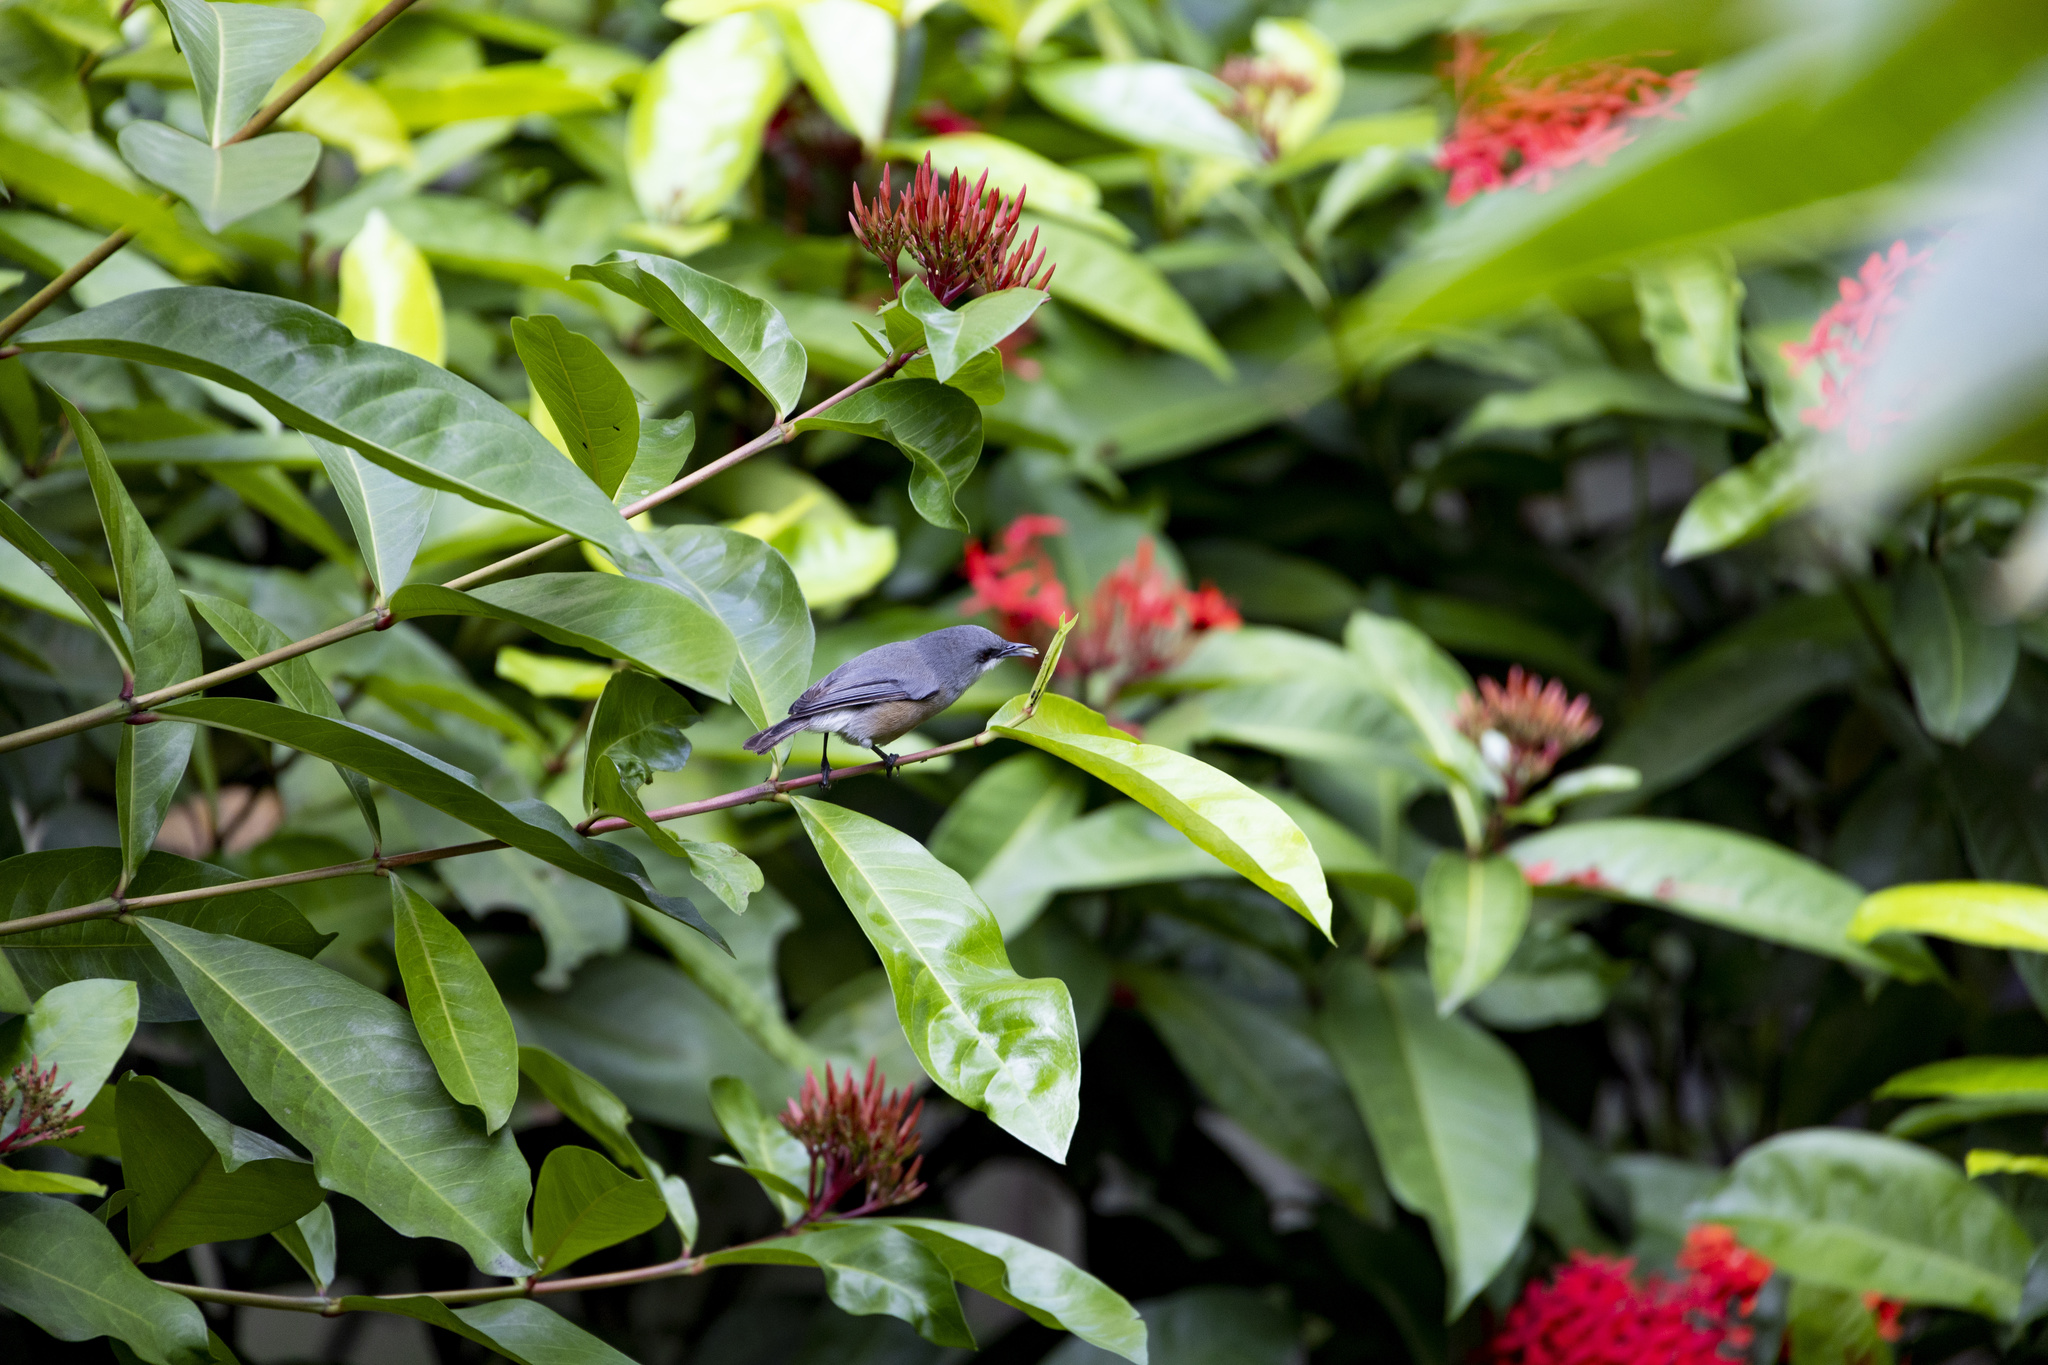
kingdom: Animalia
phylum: Chordata
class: Aves
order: Passeriformes
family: Zosteropidae
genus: Zosterops
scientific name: Zosterops mauritianus
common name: Mauritius gray white-eye
